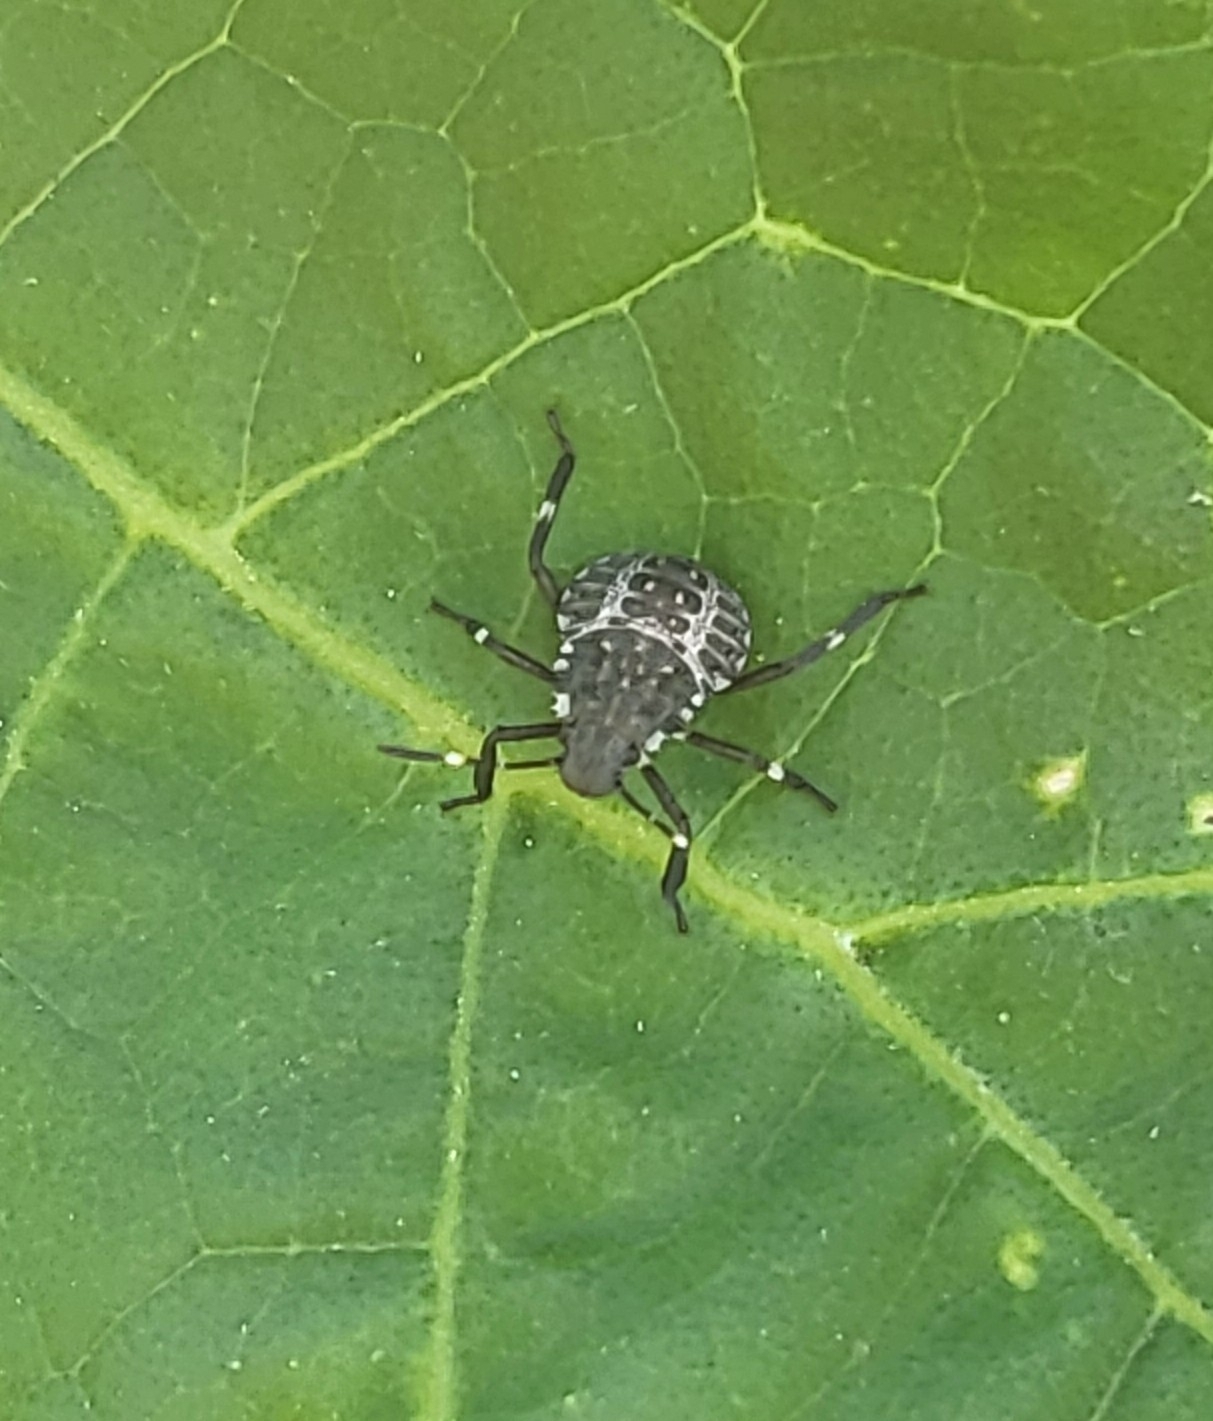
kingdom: Animalia
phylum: Arthropoda
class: Insecta
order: Hemiptera
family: Pentatomidae
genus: Halyomorpha
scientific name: Halyomorpha halys
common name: Brown marmorated stink bug
